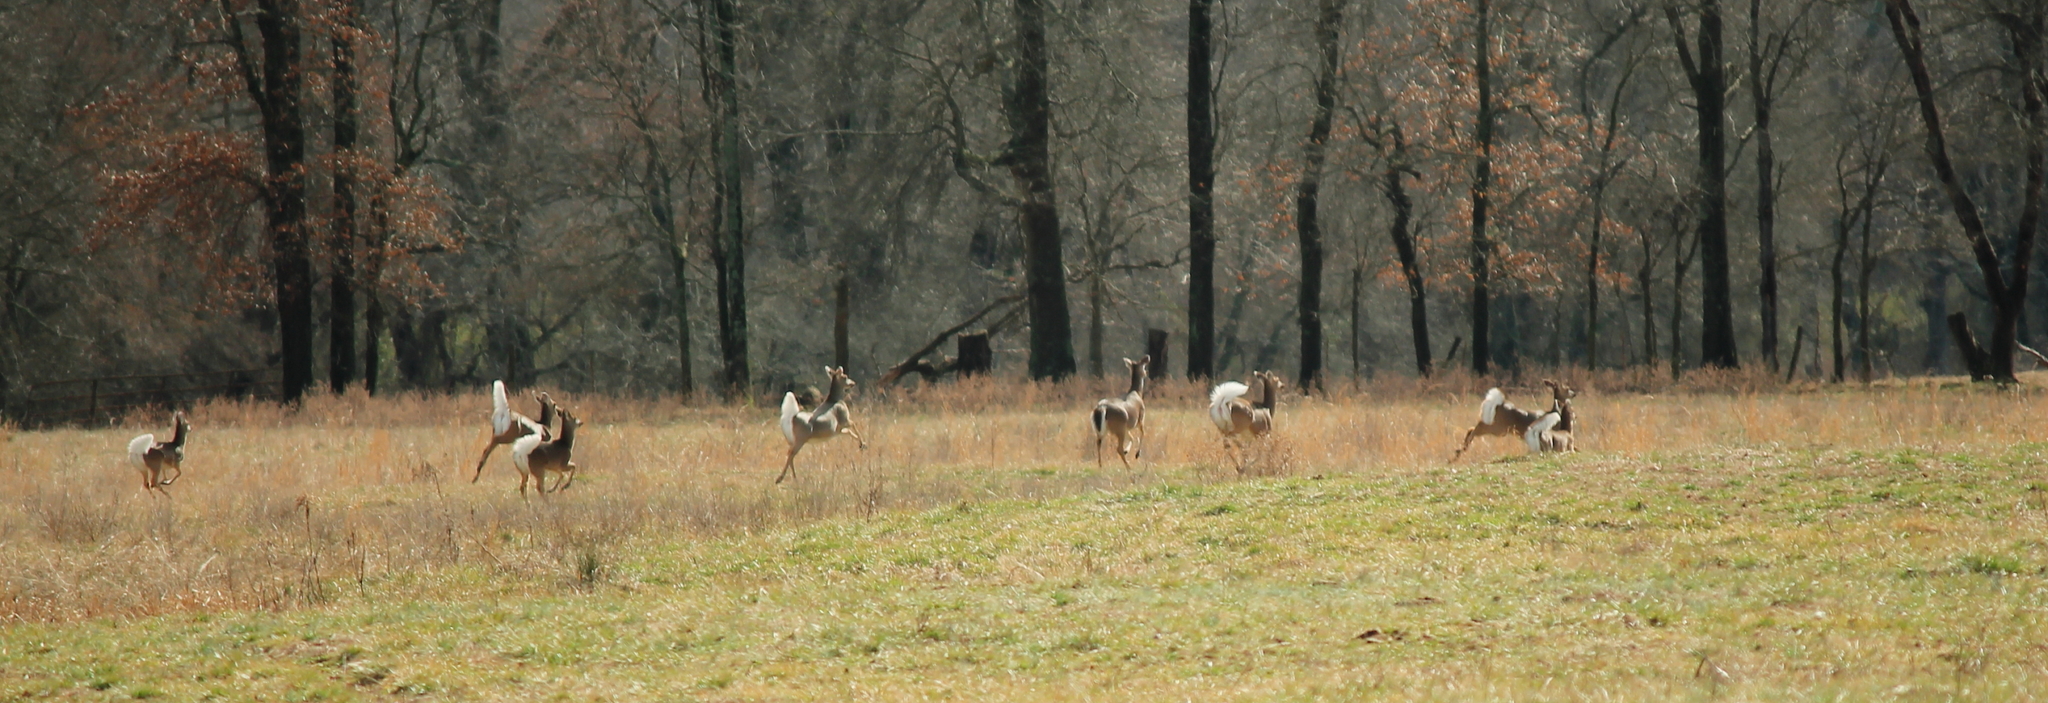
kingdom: Animalia
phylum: Chordata
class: Mammalia
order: Artiodactyla
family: Cervidae
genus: Odocoileus
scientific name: Odocoileus virginianus
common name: White-tailed deer
